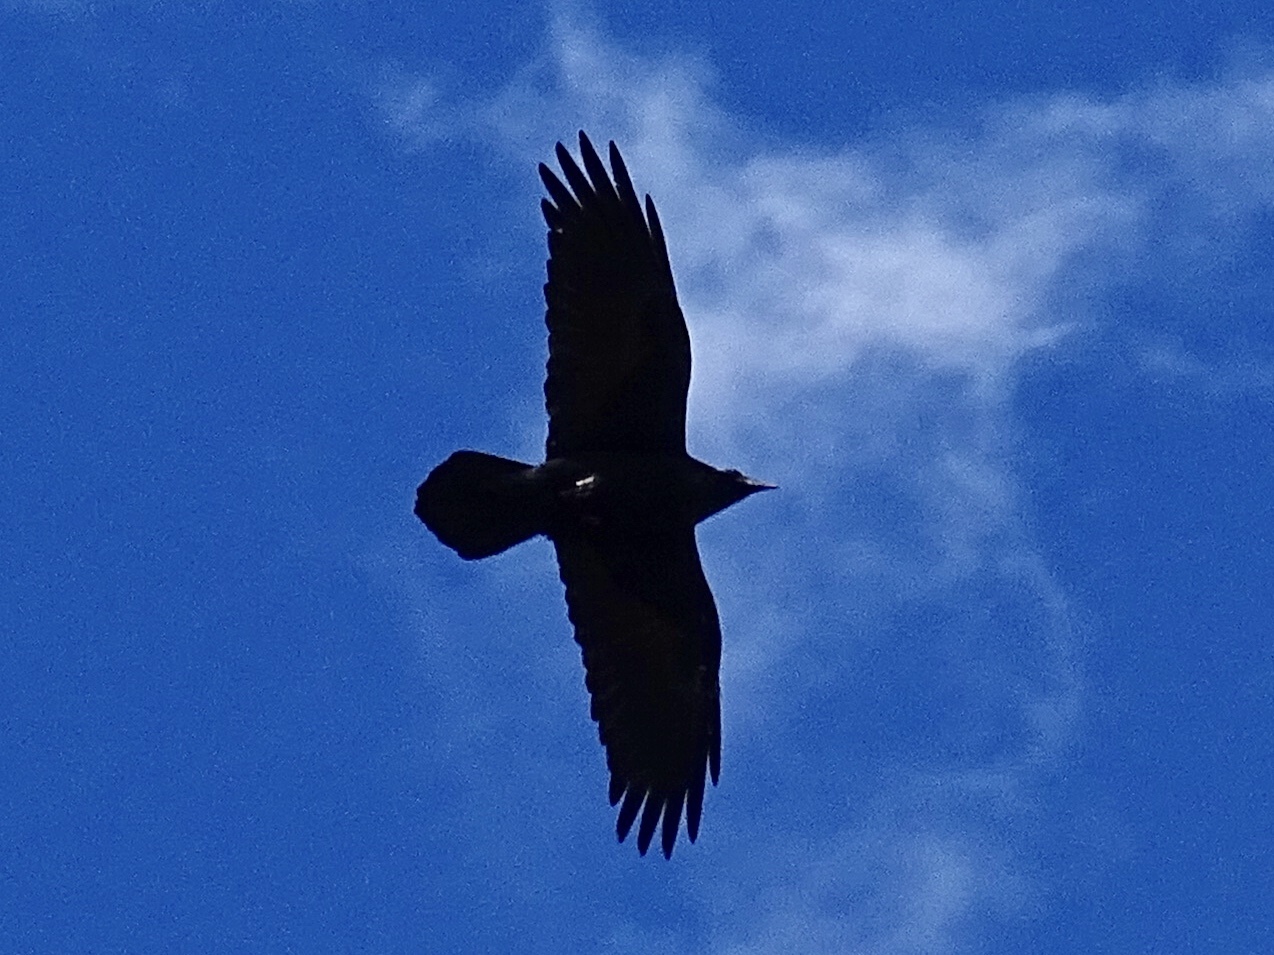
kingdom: Animalia
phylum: Chordata
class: Aves
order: Passeriformes
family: Corvidae
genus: Corvus
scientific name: Corvus corax
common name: Common raven
